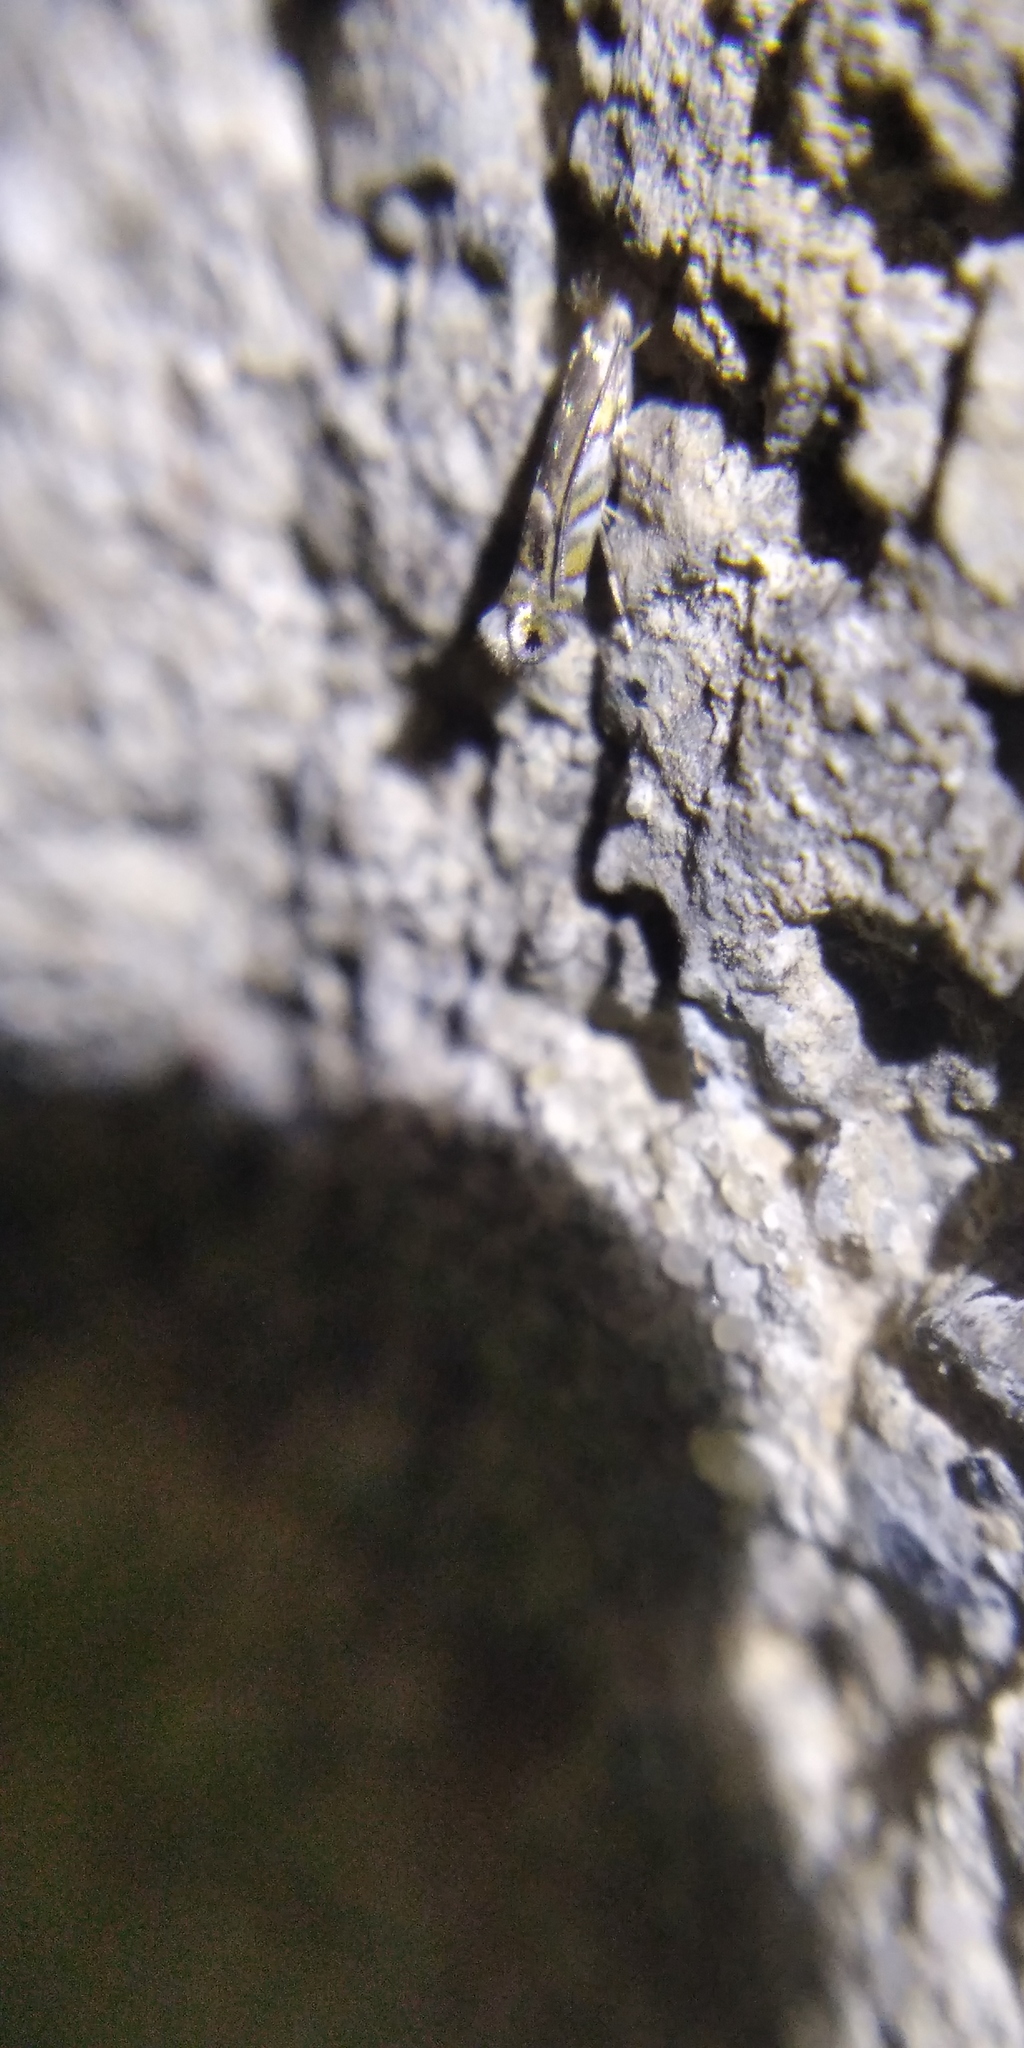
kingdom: Animalia
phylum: Arthropoda
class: Insecta
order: Lepidoptera
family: Gracillariidae
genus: Macrosaccus
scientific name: Macrosaccus robiniella
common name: Leaf blotch miner moth
